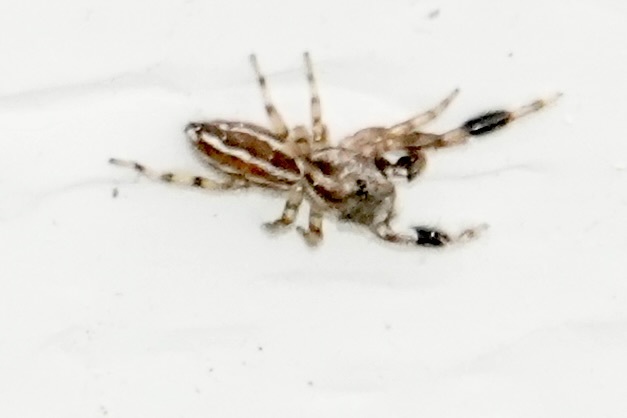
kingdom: Animalia
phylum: Arthropoda
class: Arachnida
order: Araneae
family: Salticidae
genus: Marpissa
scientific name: Marpissa lineata
